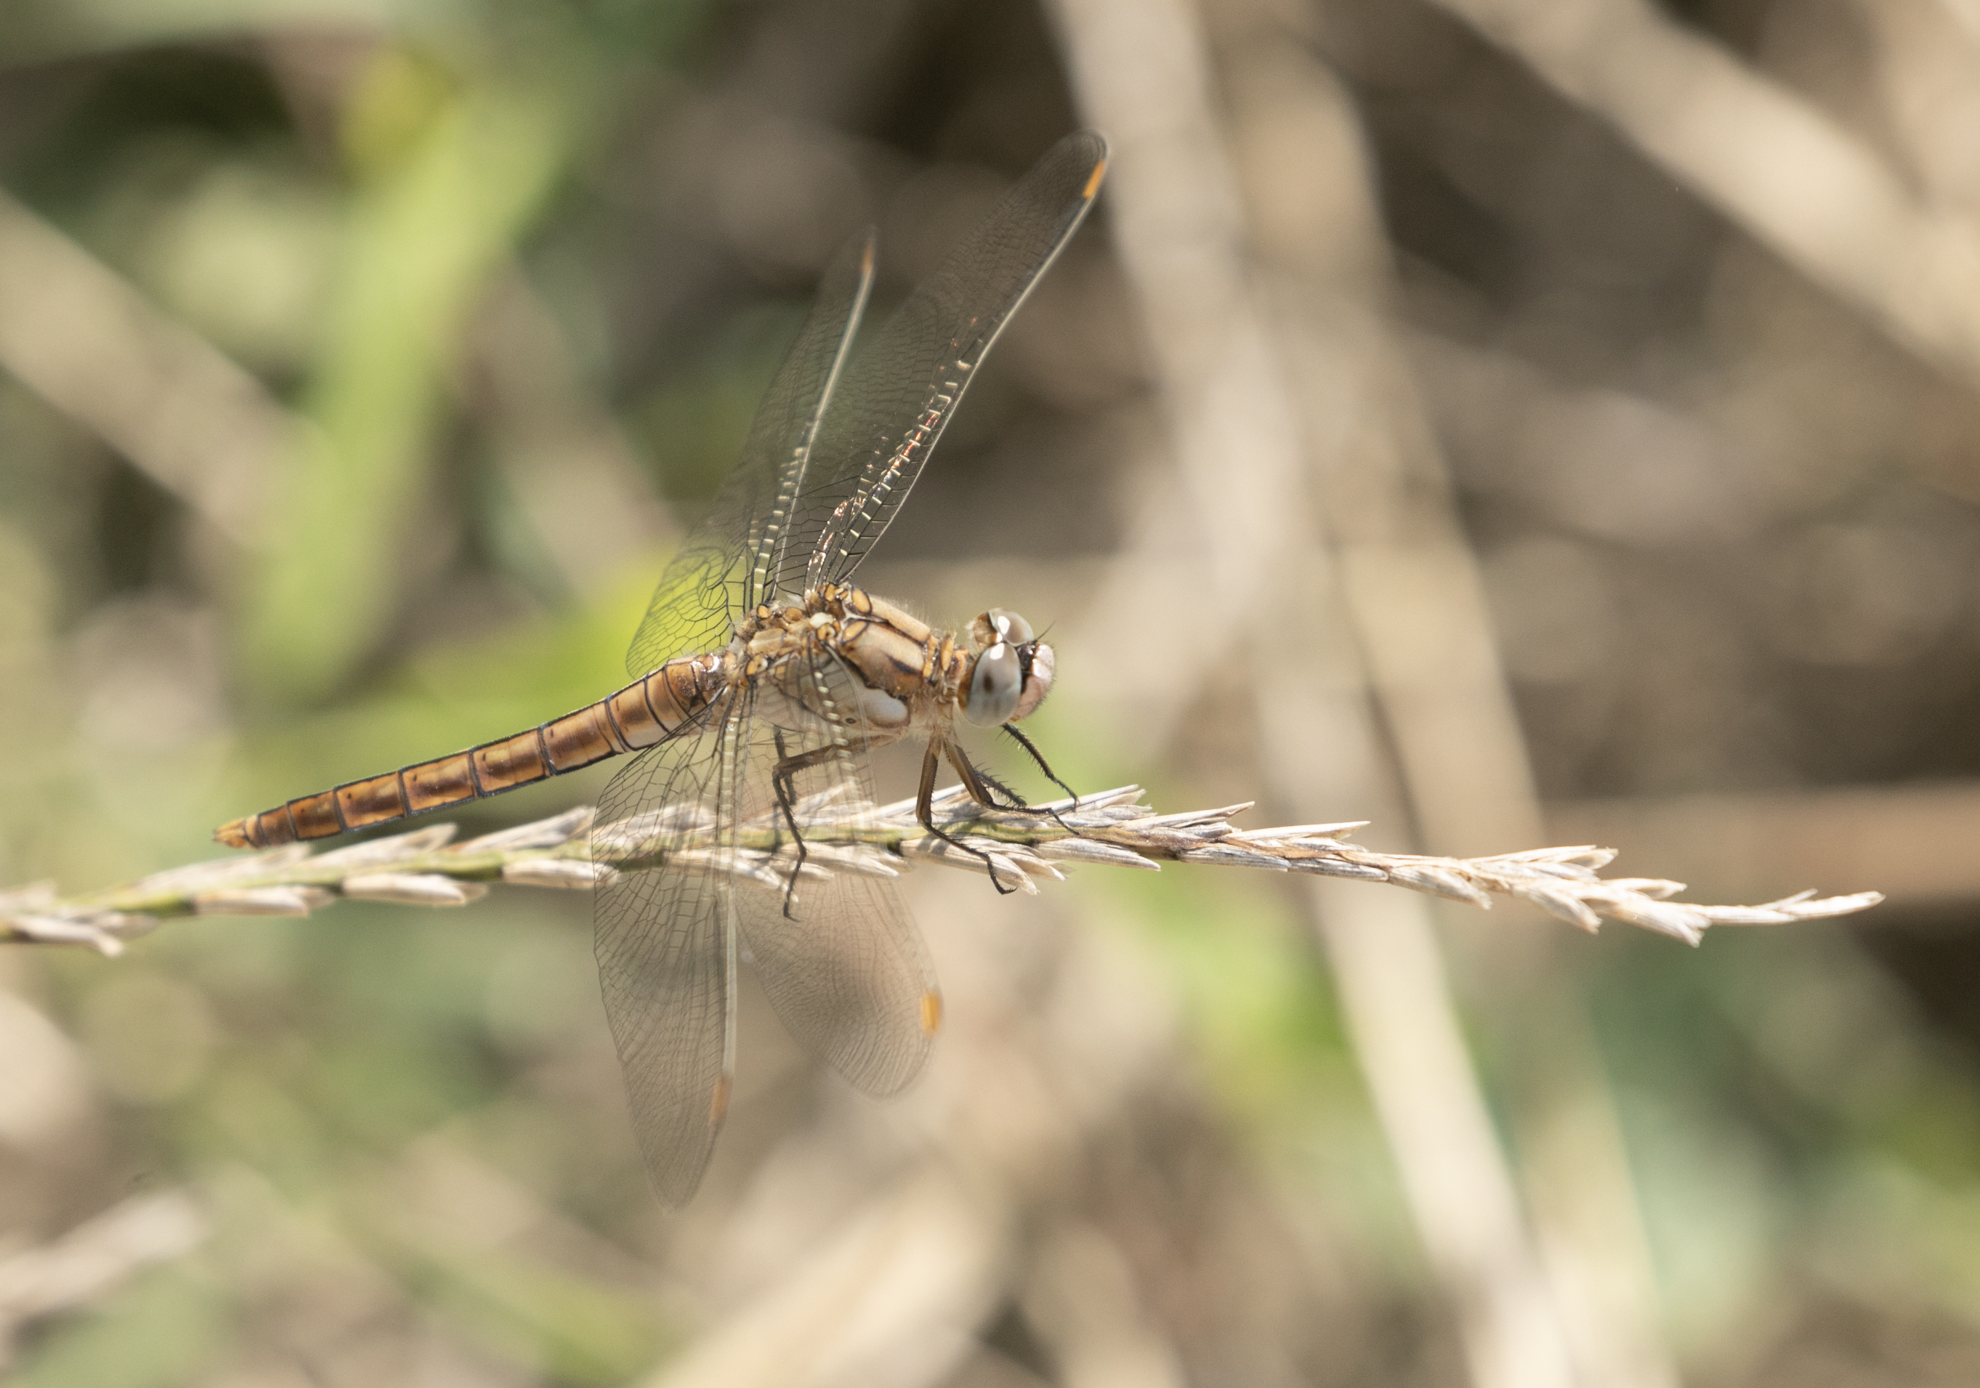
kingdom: Animalia
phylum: Arthropoda
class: Insecta
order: Odonata
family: Libellulidae
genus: Orthetrum
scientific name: Orthetrum brunneum
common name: Southern skimmer
